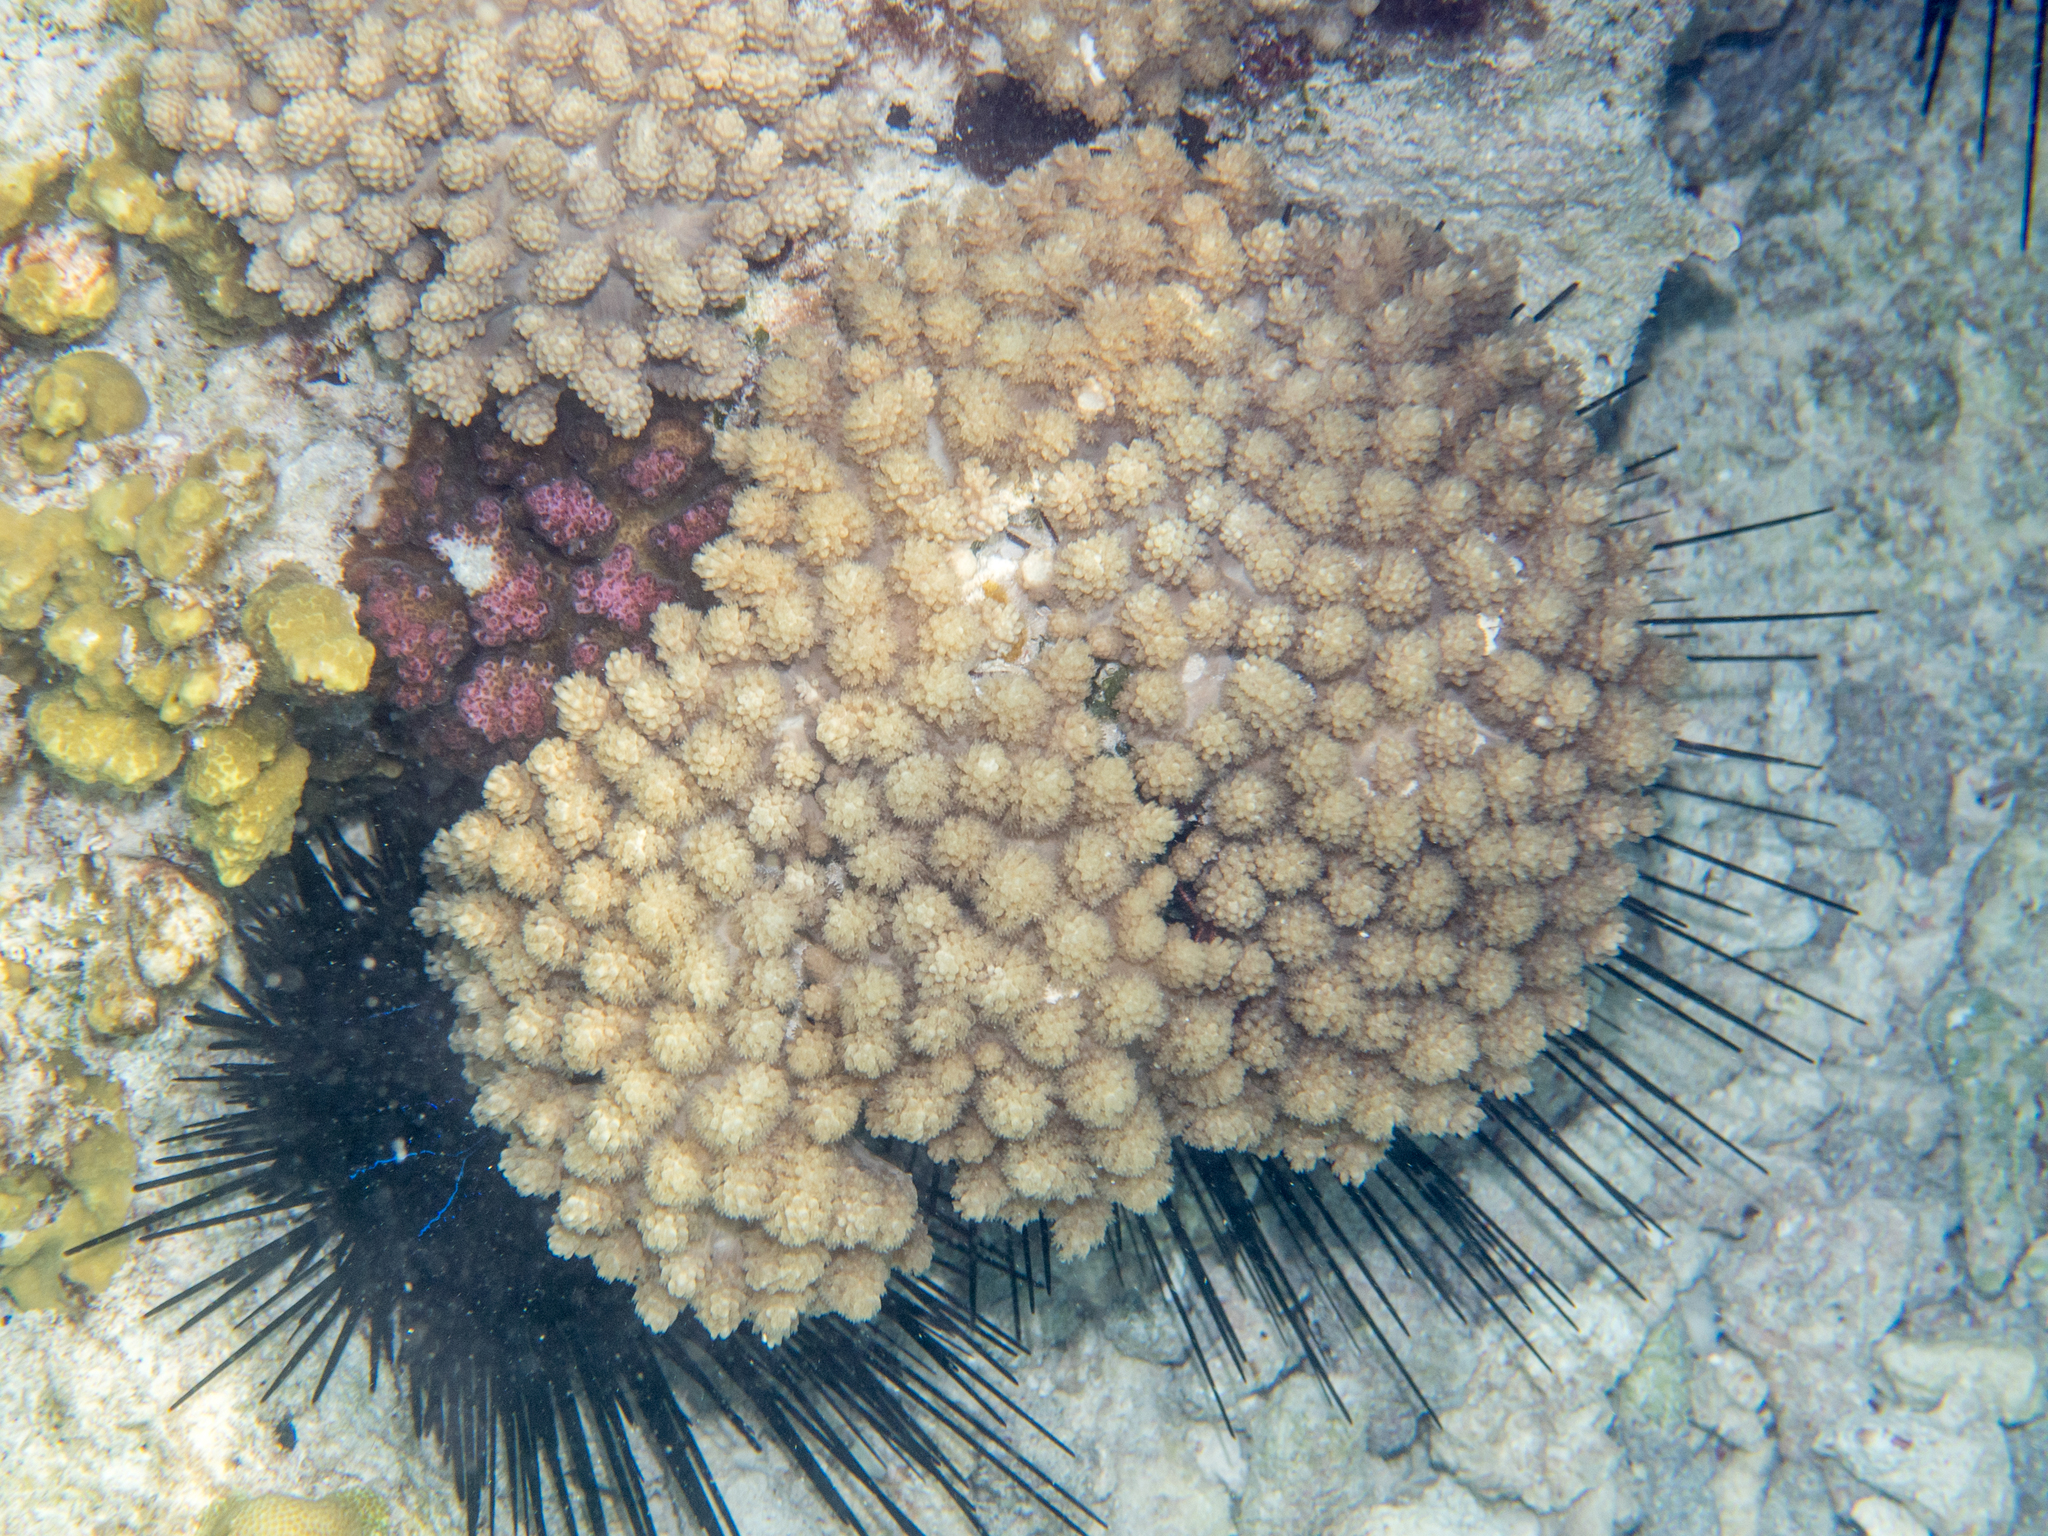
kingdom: Animalia
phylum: Cnidaria
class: Anthozoa
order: Malacalcyonacea
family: Xeniidae
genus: Sympodium
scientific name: Sympodium gibbaeum
